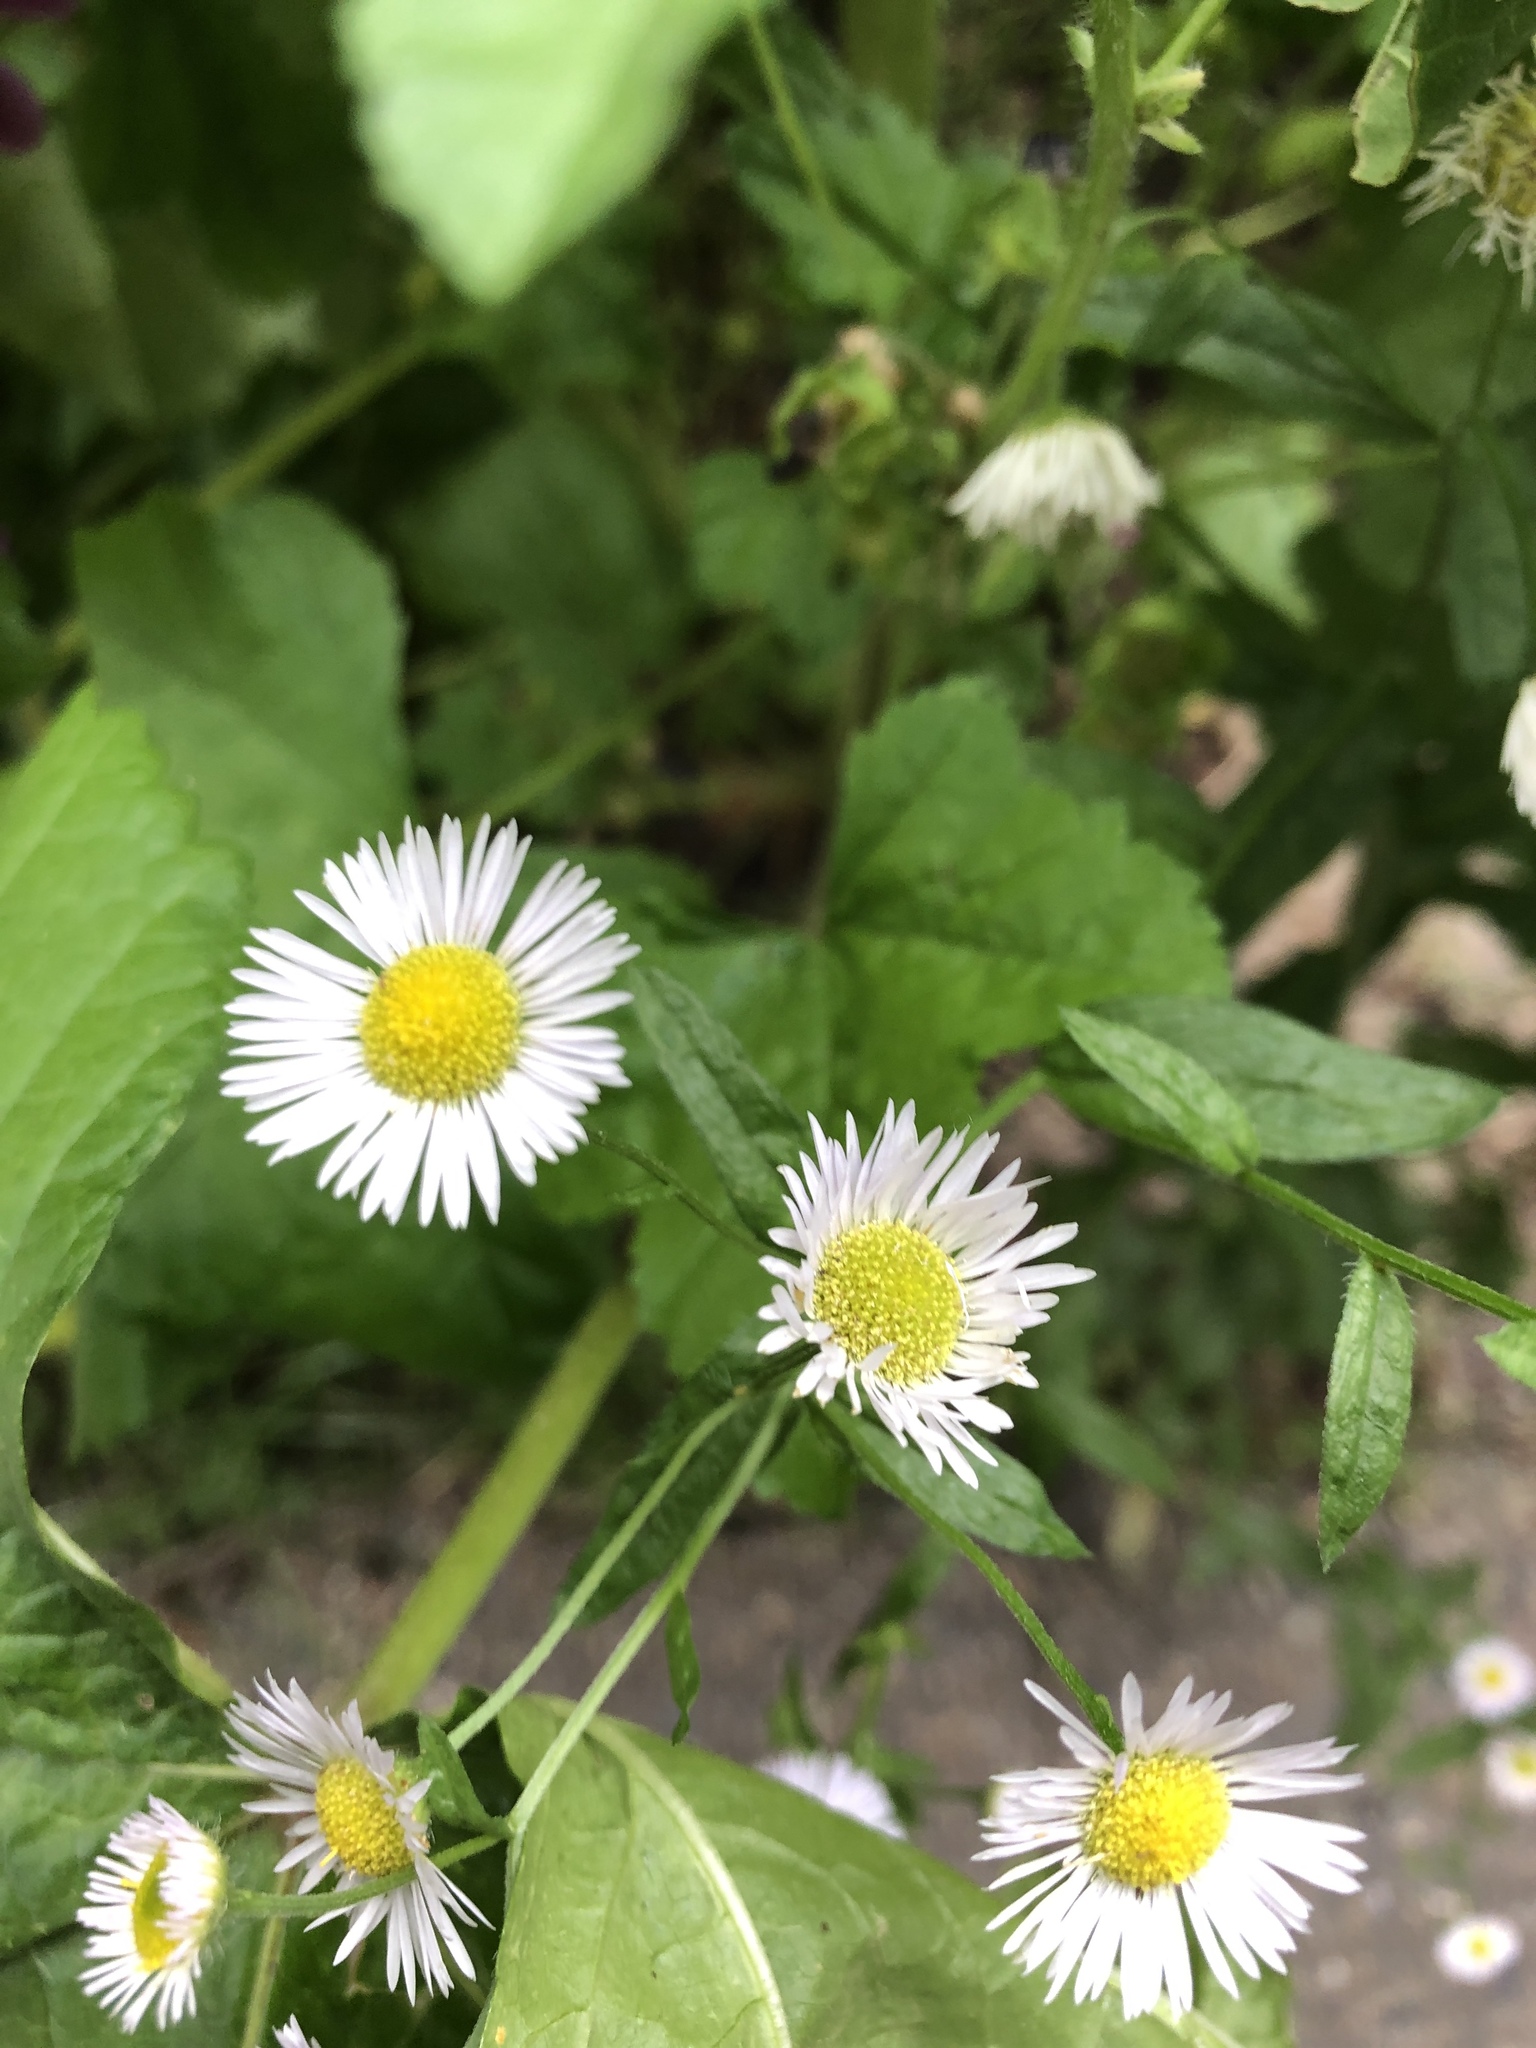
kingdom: Plantae
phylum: Tracheophyta
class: Magnoliopsida
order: Asterales
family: Asteraceae
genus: Erigeron
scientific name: Erigeron annuus
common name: Tall fleabane
